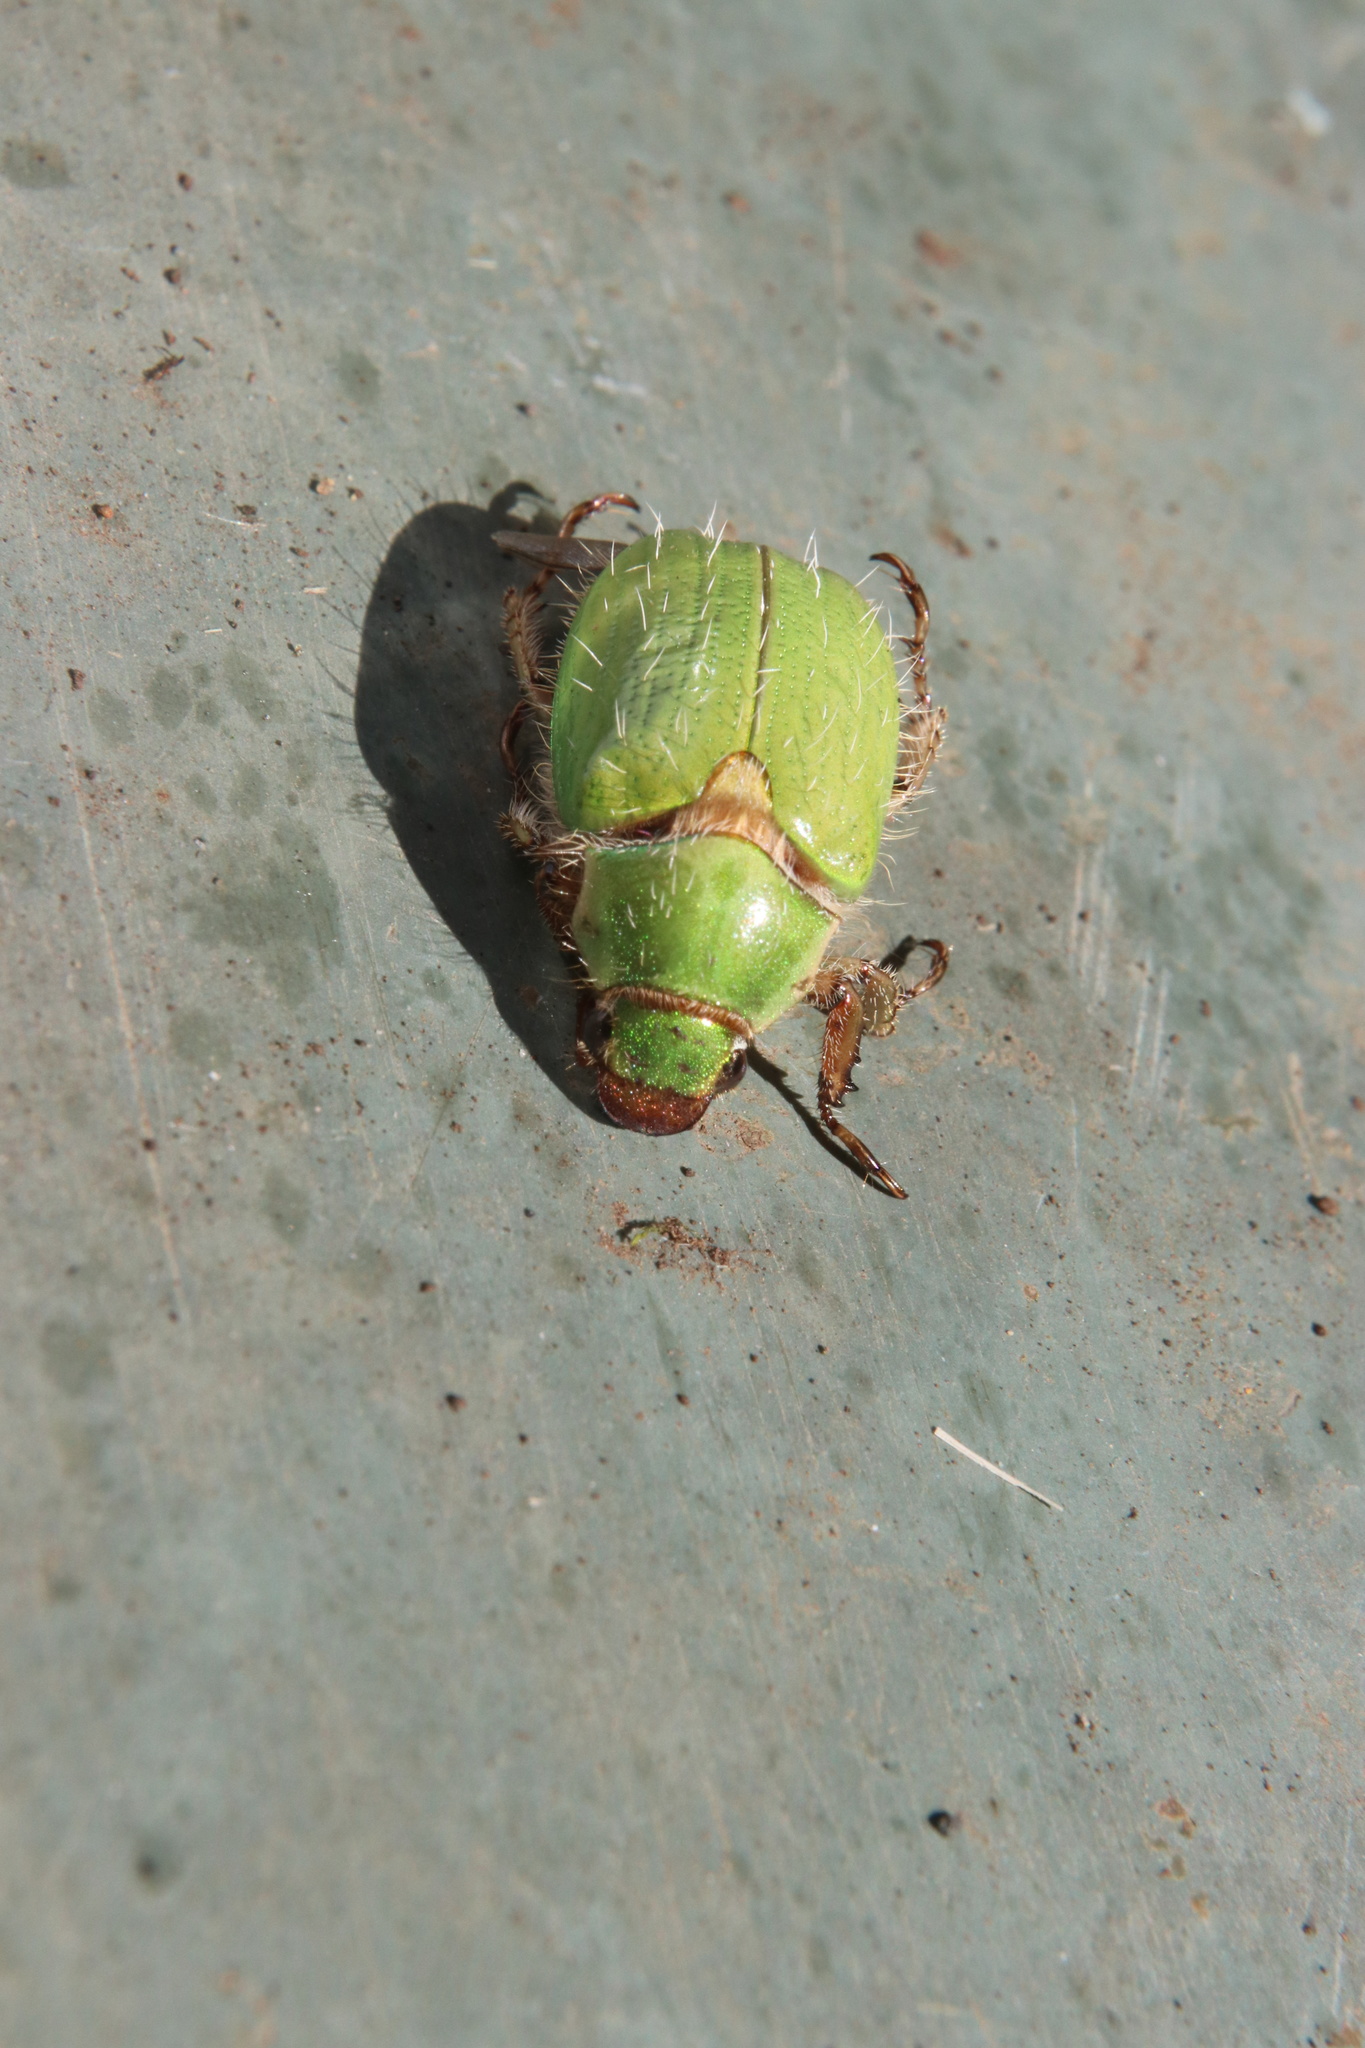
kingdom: Animalia
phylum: Arthropoda
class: Insecta
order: Coleoptera
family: Scarabaeidae
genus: Brachysternus
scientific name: Brachysternus prasinus
